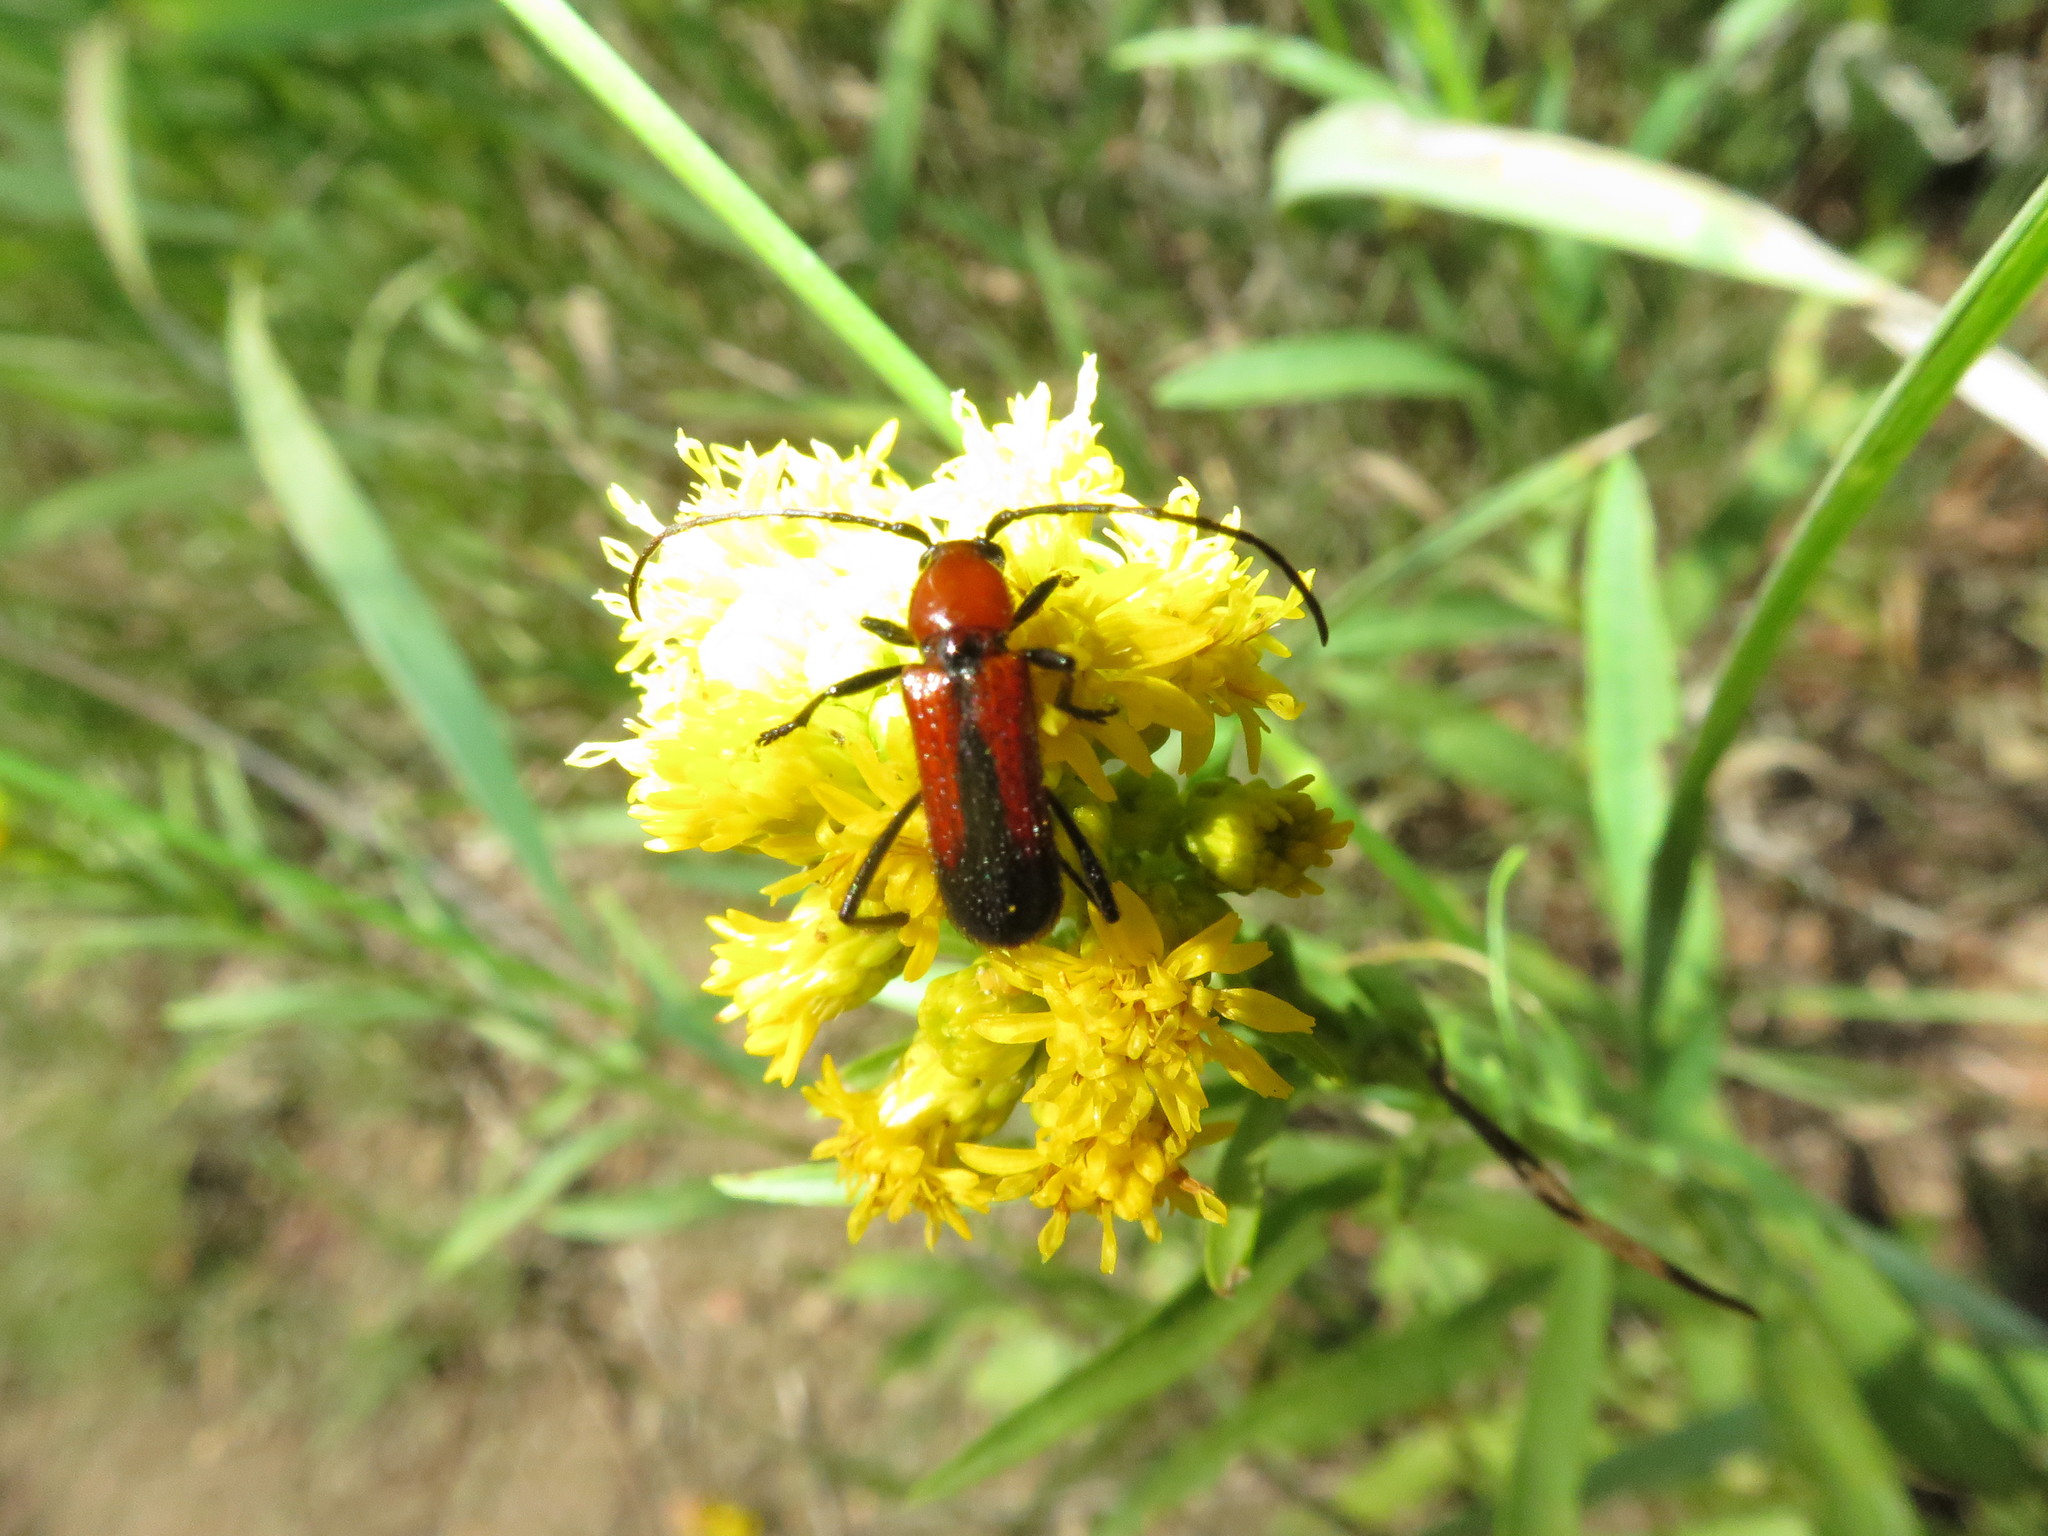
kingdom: Animalia
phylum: Arthropoda
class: Insecta
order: Coleoptera
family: Cerambycidae
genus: Batyle
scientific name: Batyle suturalis
